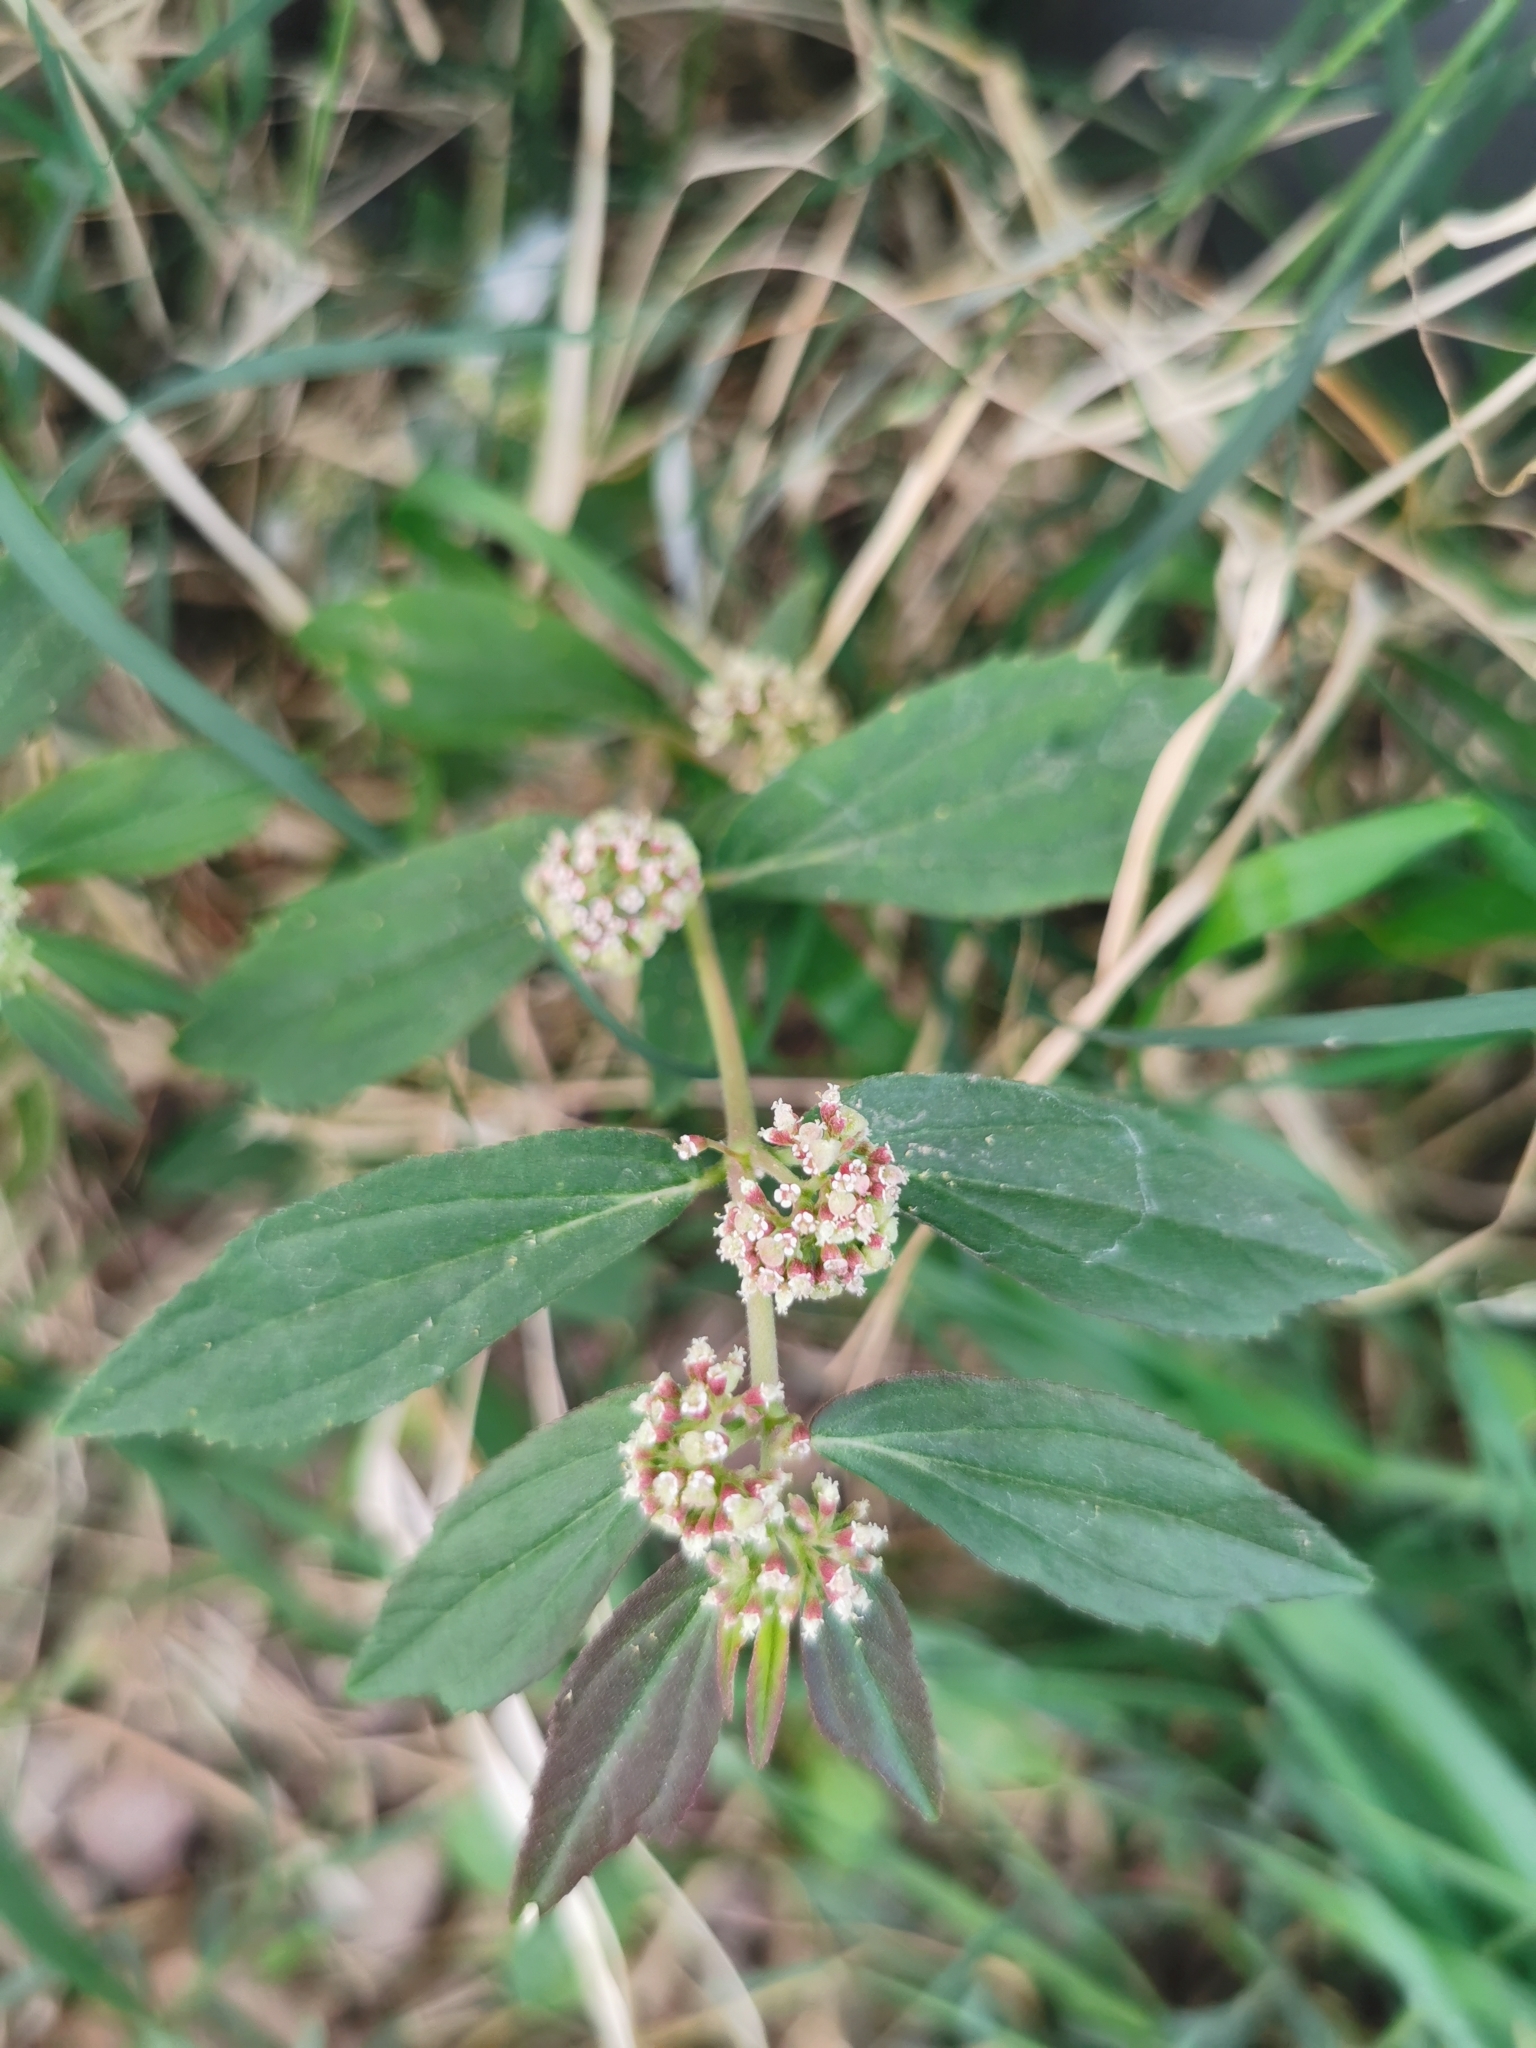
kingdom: Plantae
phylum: Tracheophyta
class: Magnoliopsida
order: Malpighiales
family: Euphorbiaceae
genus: Euphorbia
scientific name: Euphorbia hirta
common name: Pillpod sandmat
